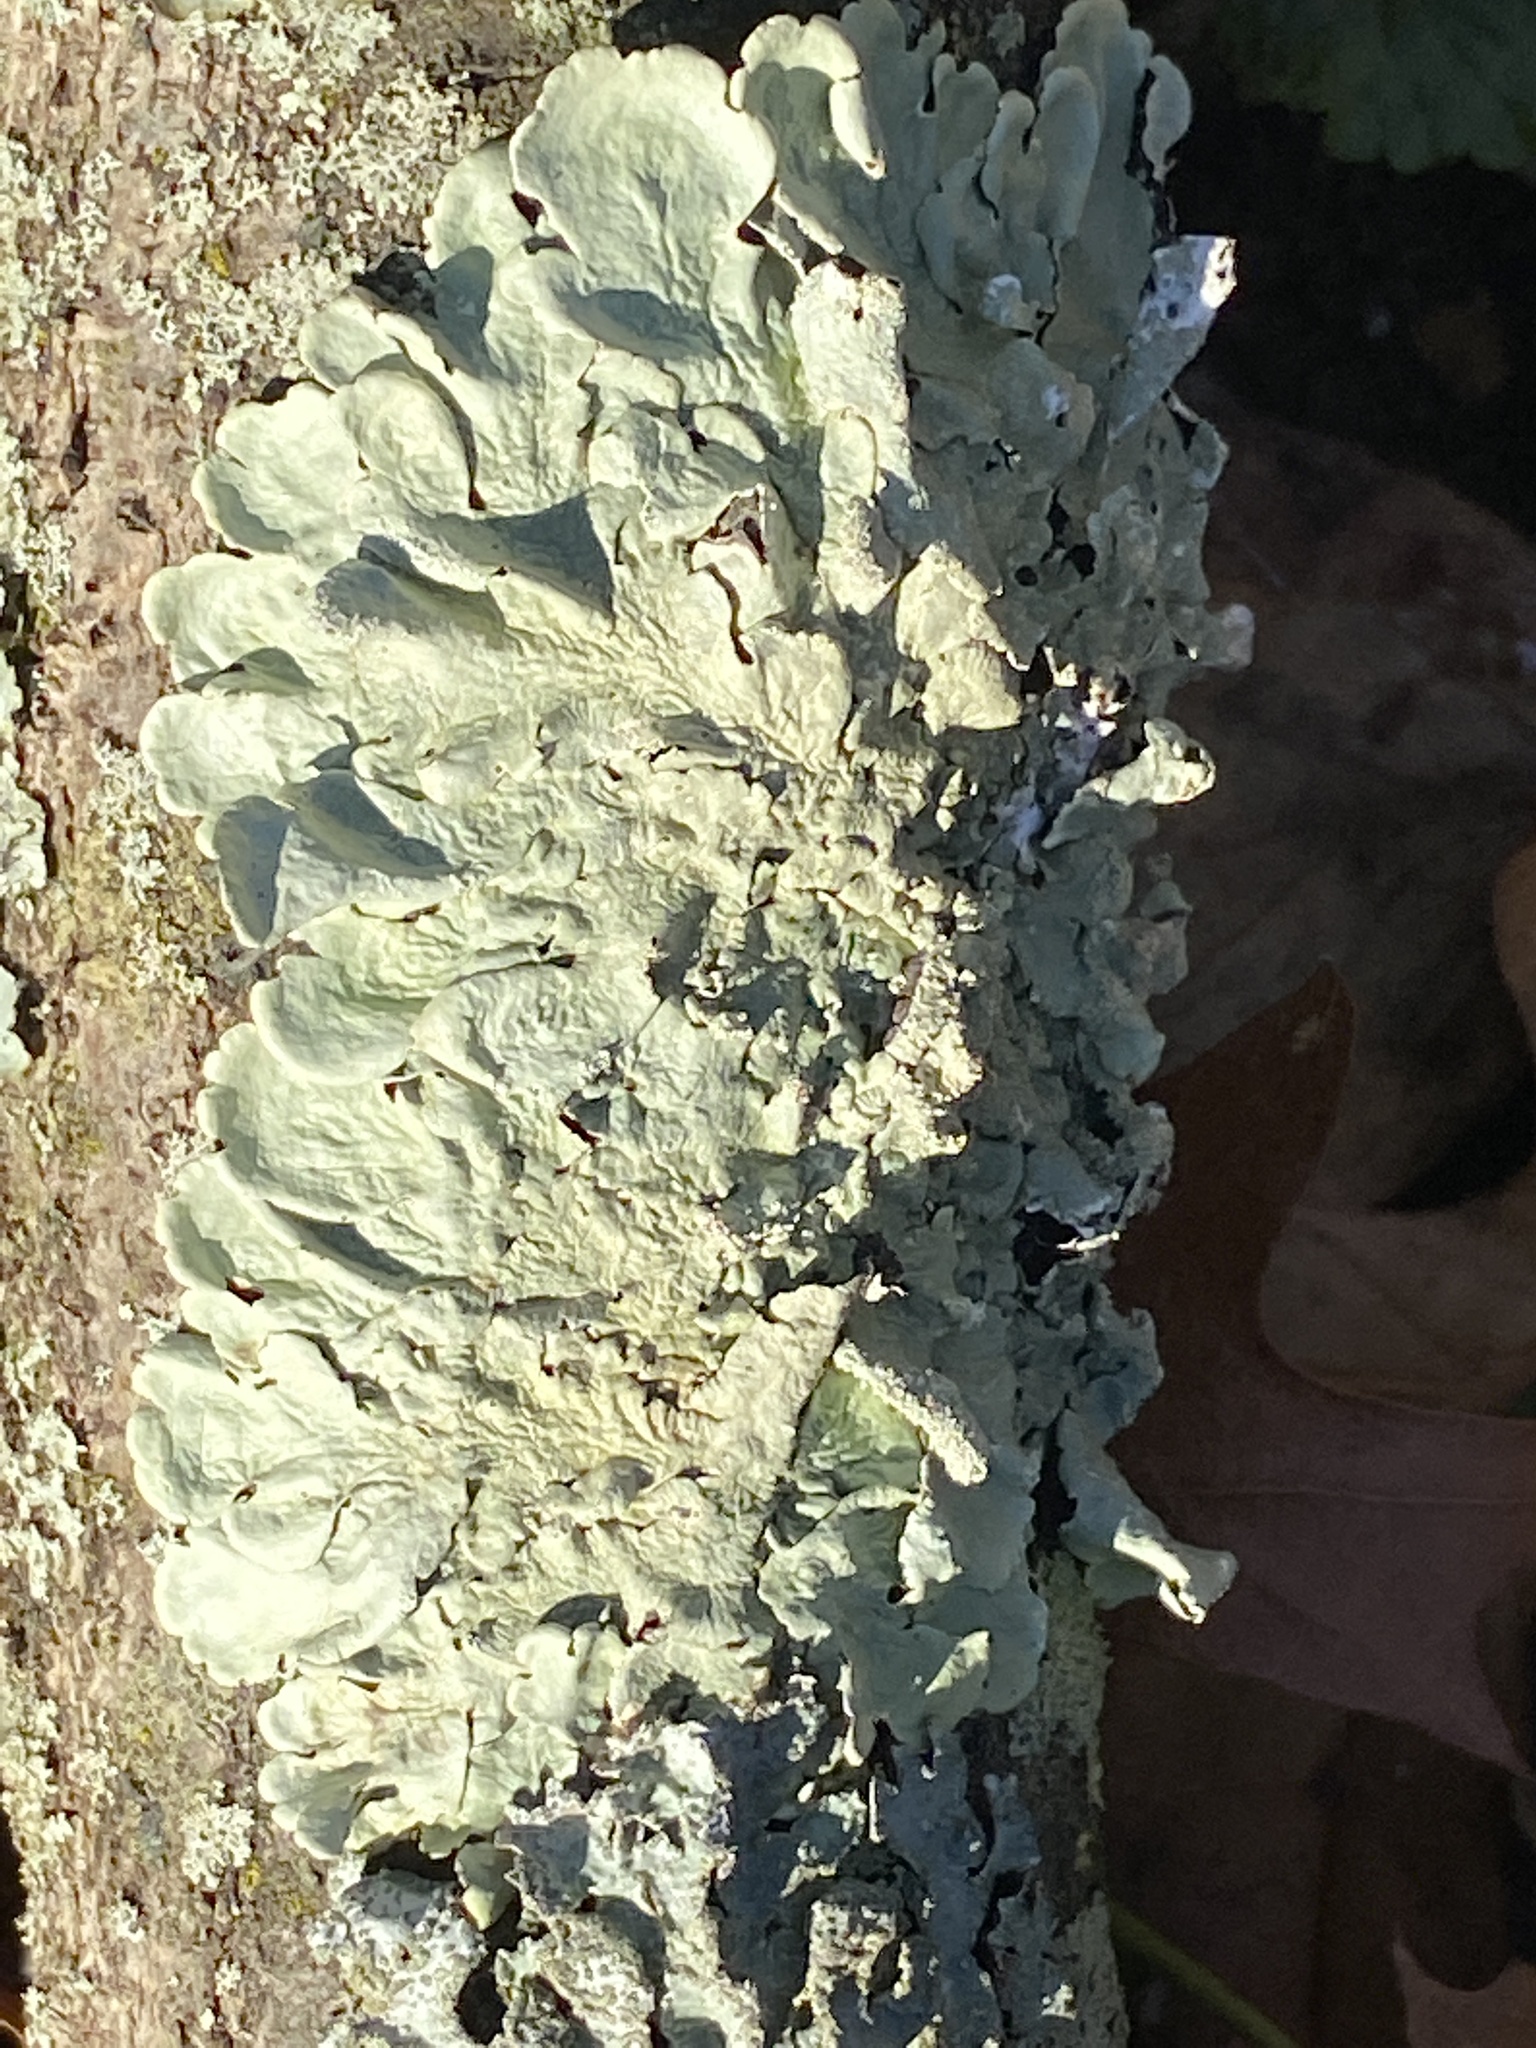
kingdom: Fungi
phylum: Ascomycota
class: Lecanoromycetes
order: Lecanorales
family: Parmeliaceae
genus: Flavoparmelia
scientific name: Flavoparmelia caperata
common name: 40-mile per hour lichen
